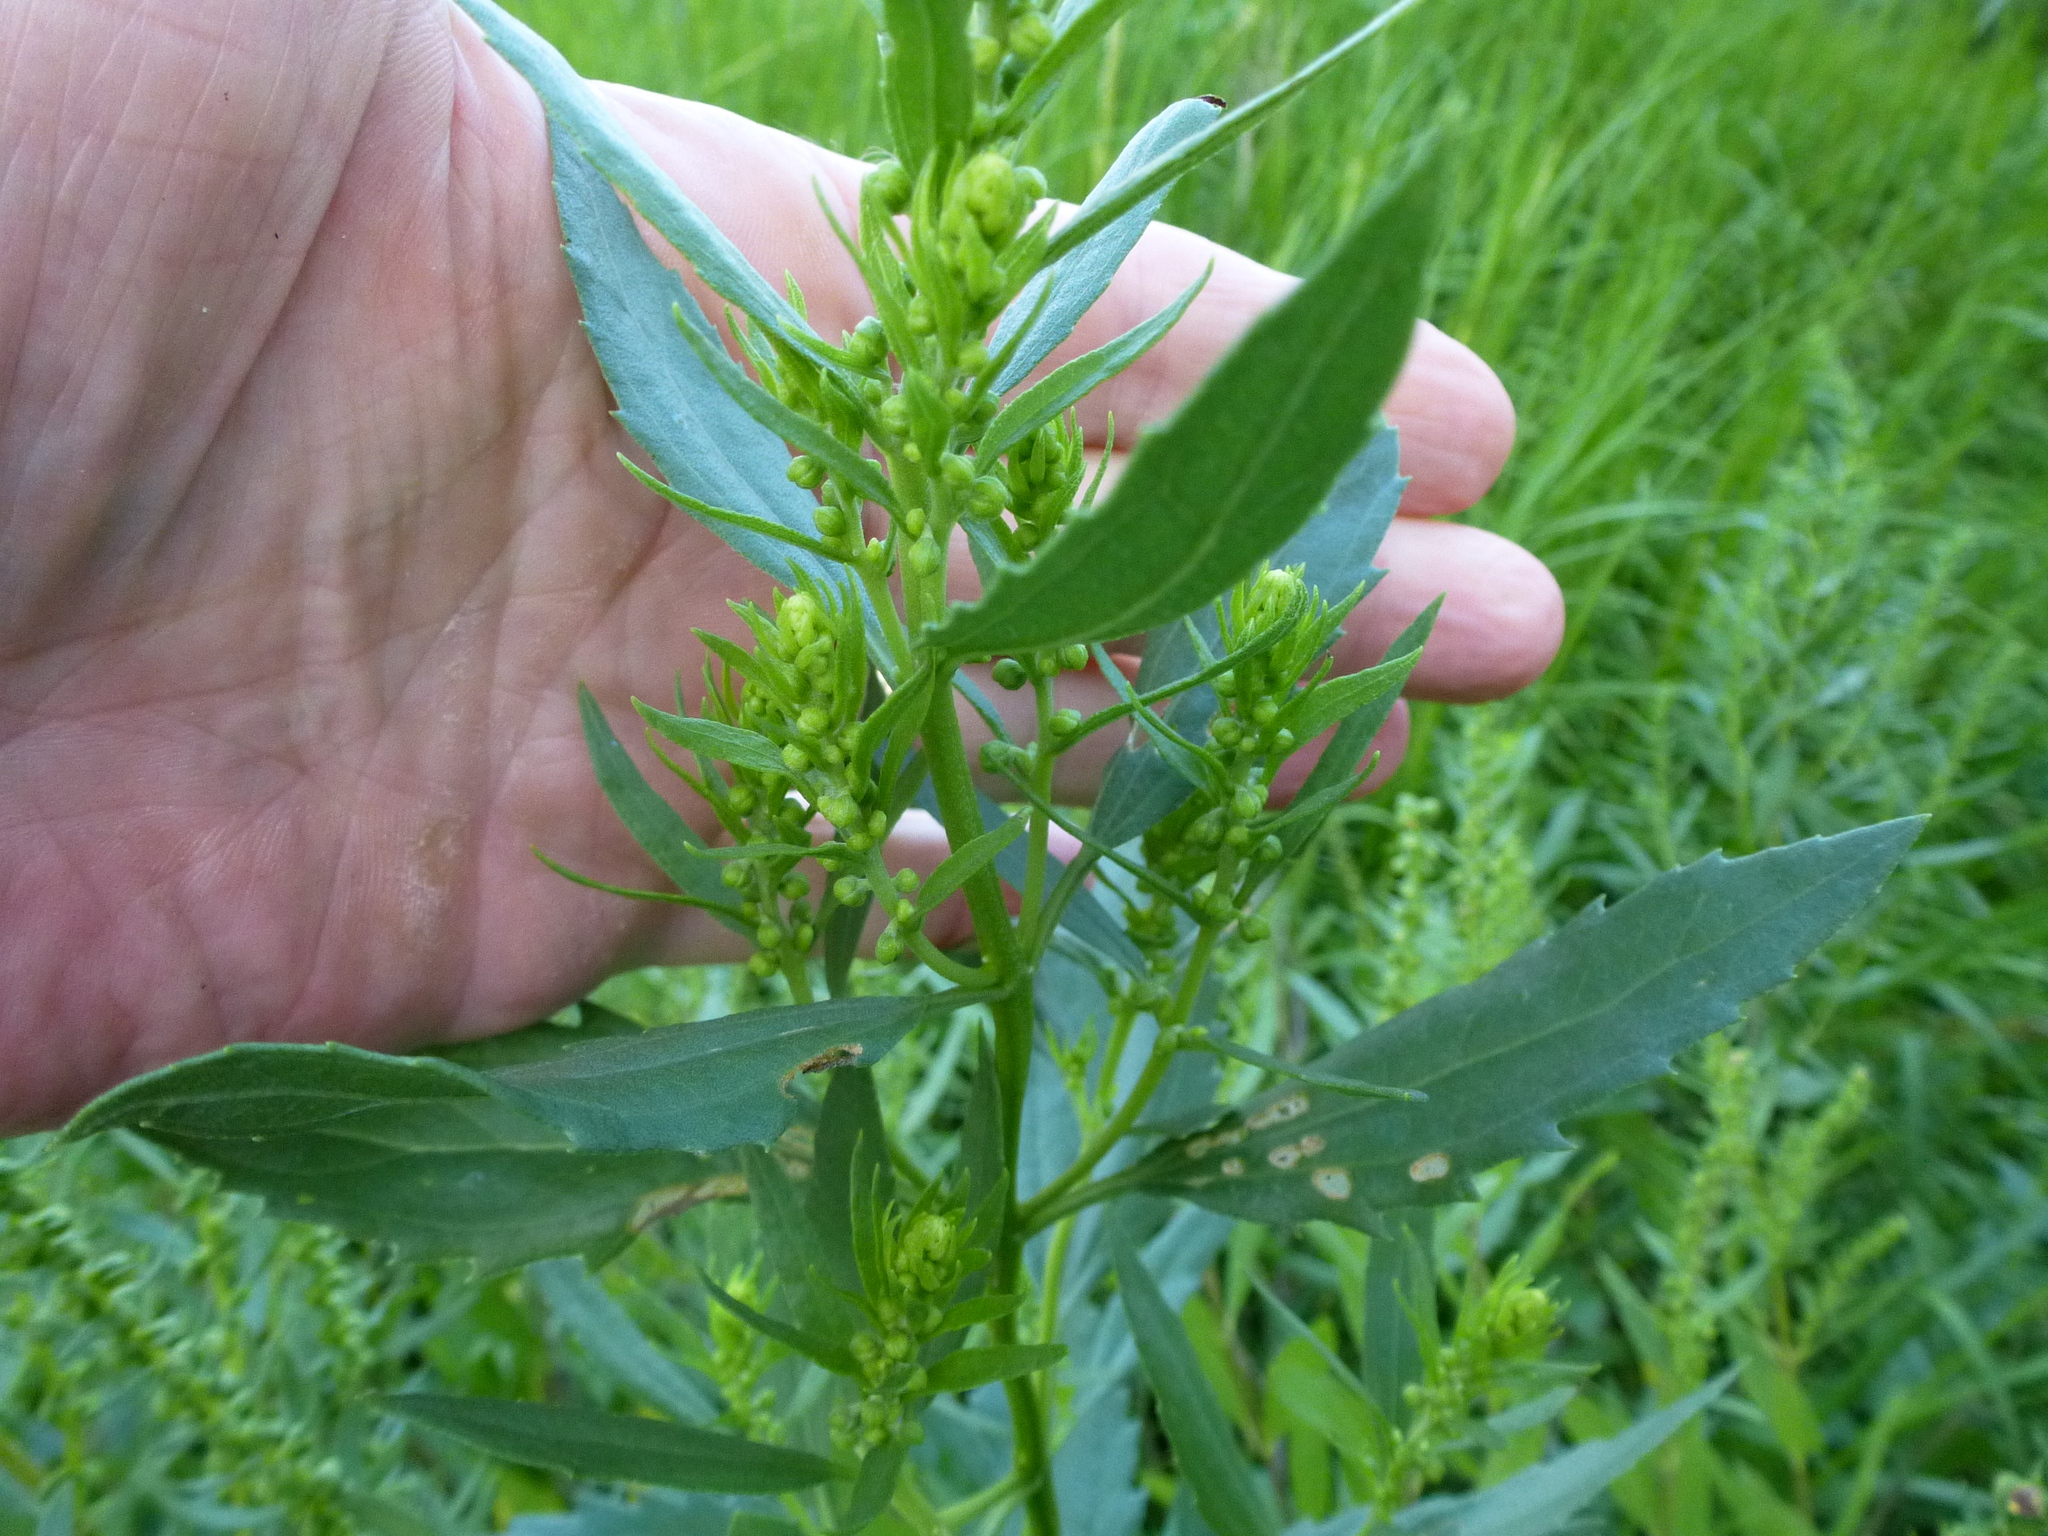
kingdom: Plantae
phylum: Tracheophyta
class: Magnoliopsida
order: Asterales
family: Asteraceae
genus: Iva
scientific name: Iva frutescens
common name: Big-leaved marsh-elder
